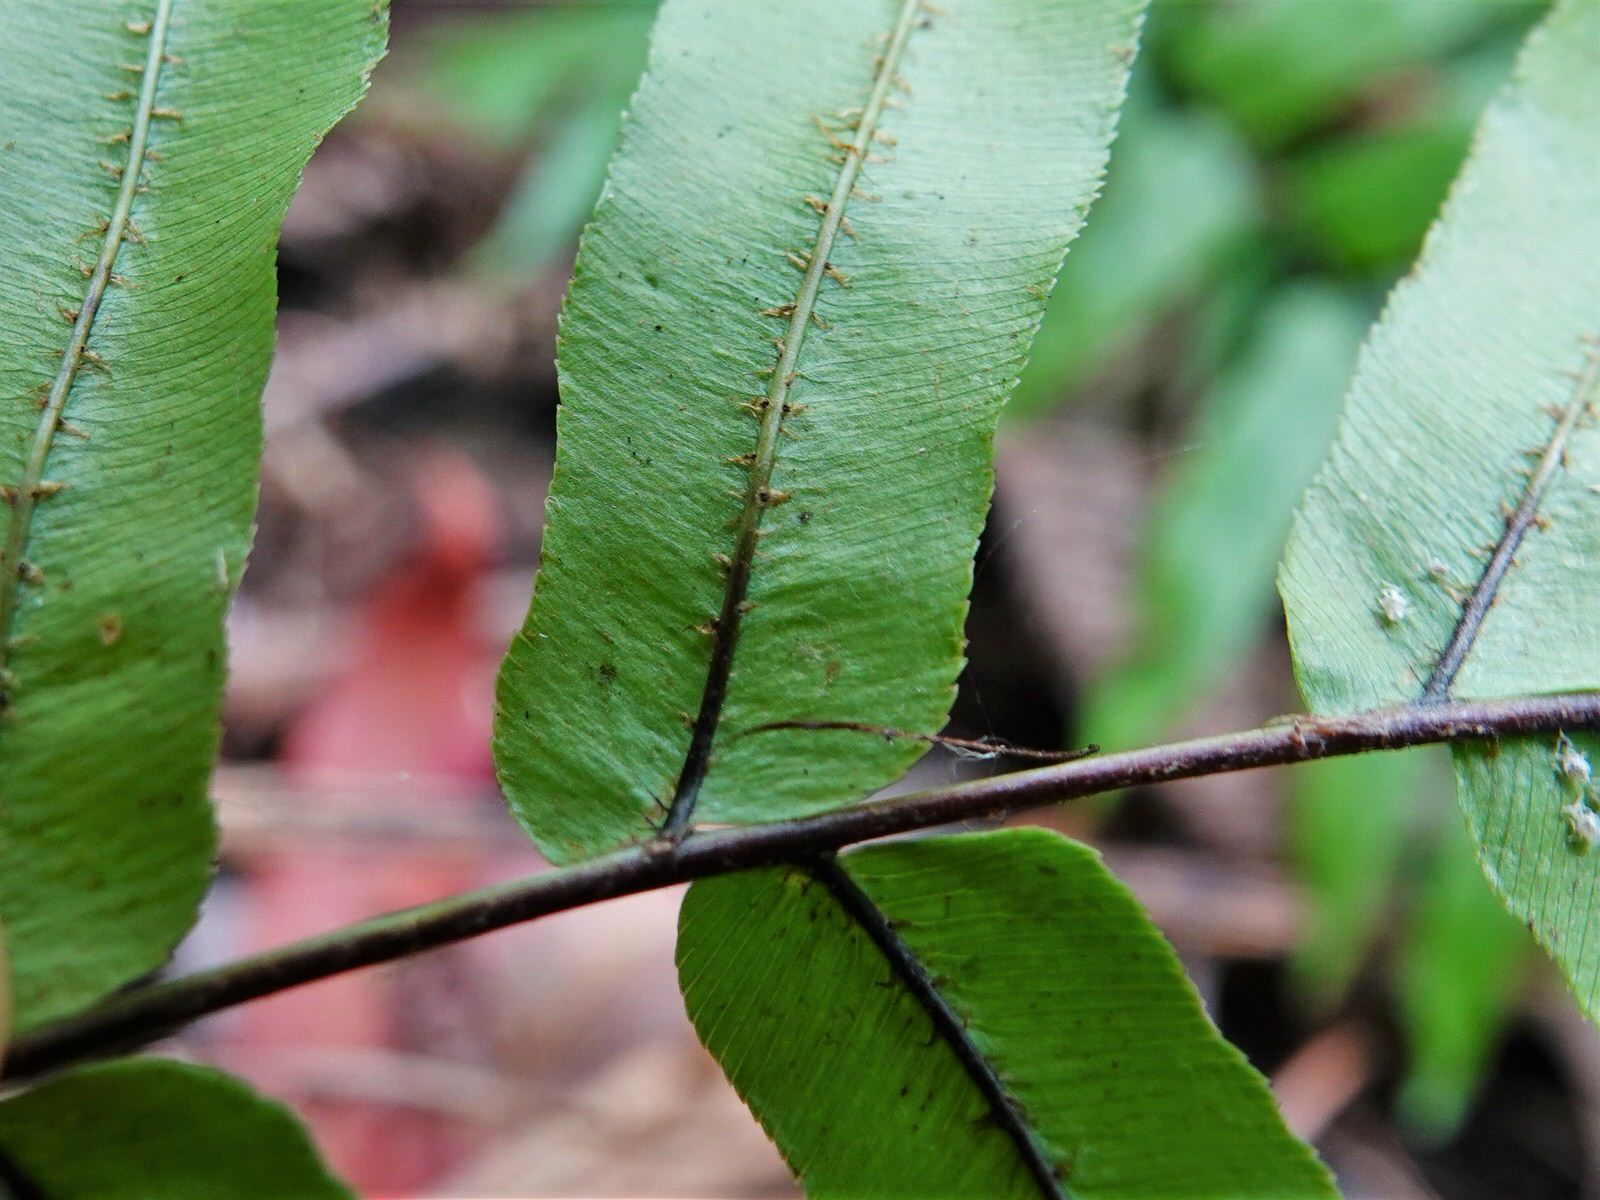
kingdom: Plantae
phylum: Tracheophyta
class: Polypodiopsida
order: Polypodiales
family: Blechnaceae
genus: Parablechnum
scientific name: Parablechnum minus
